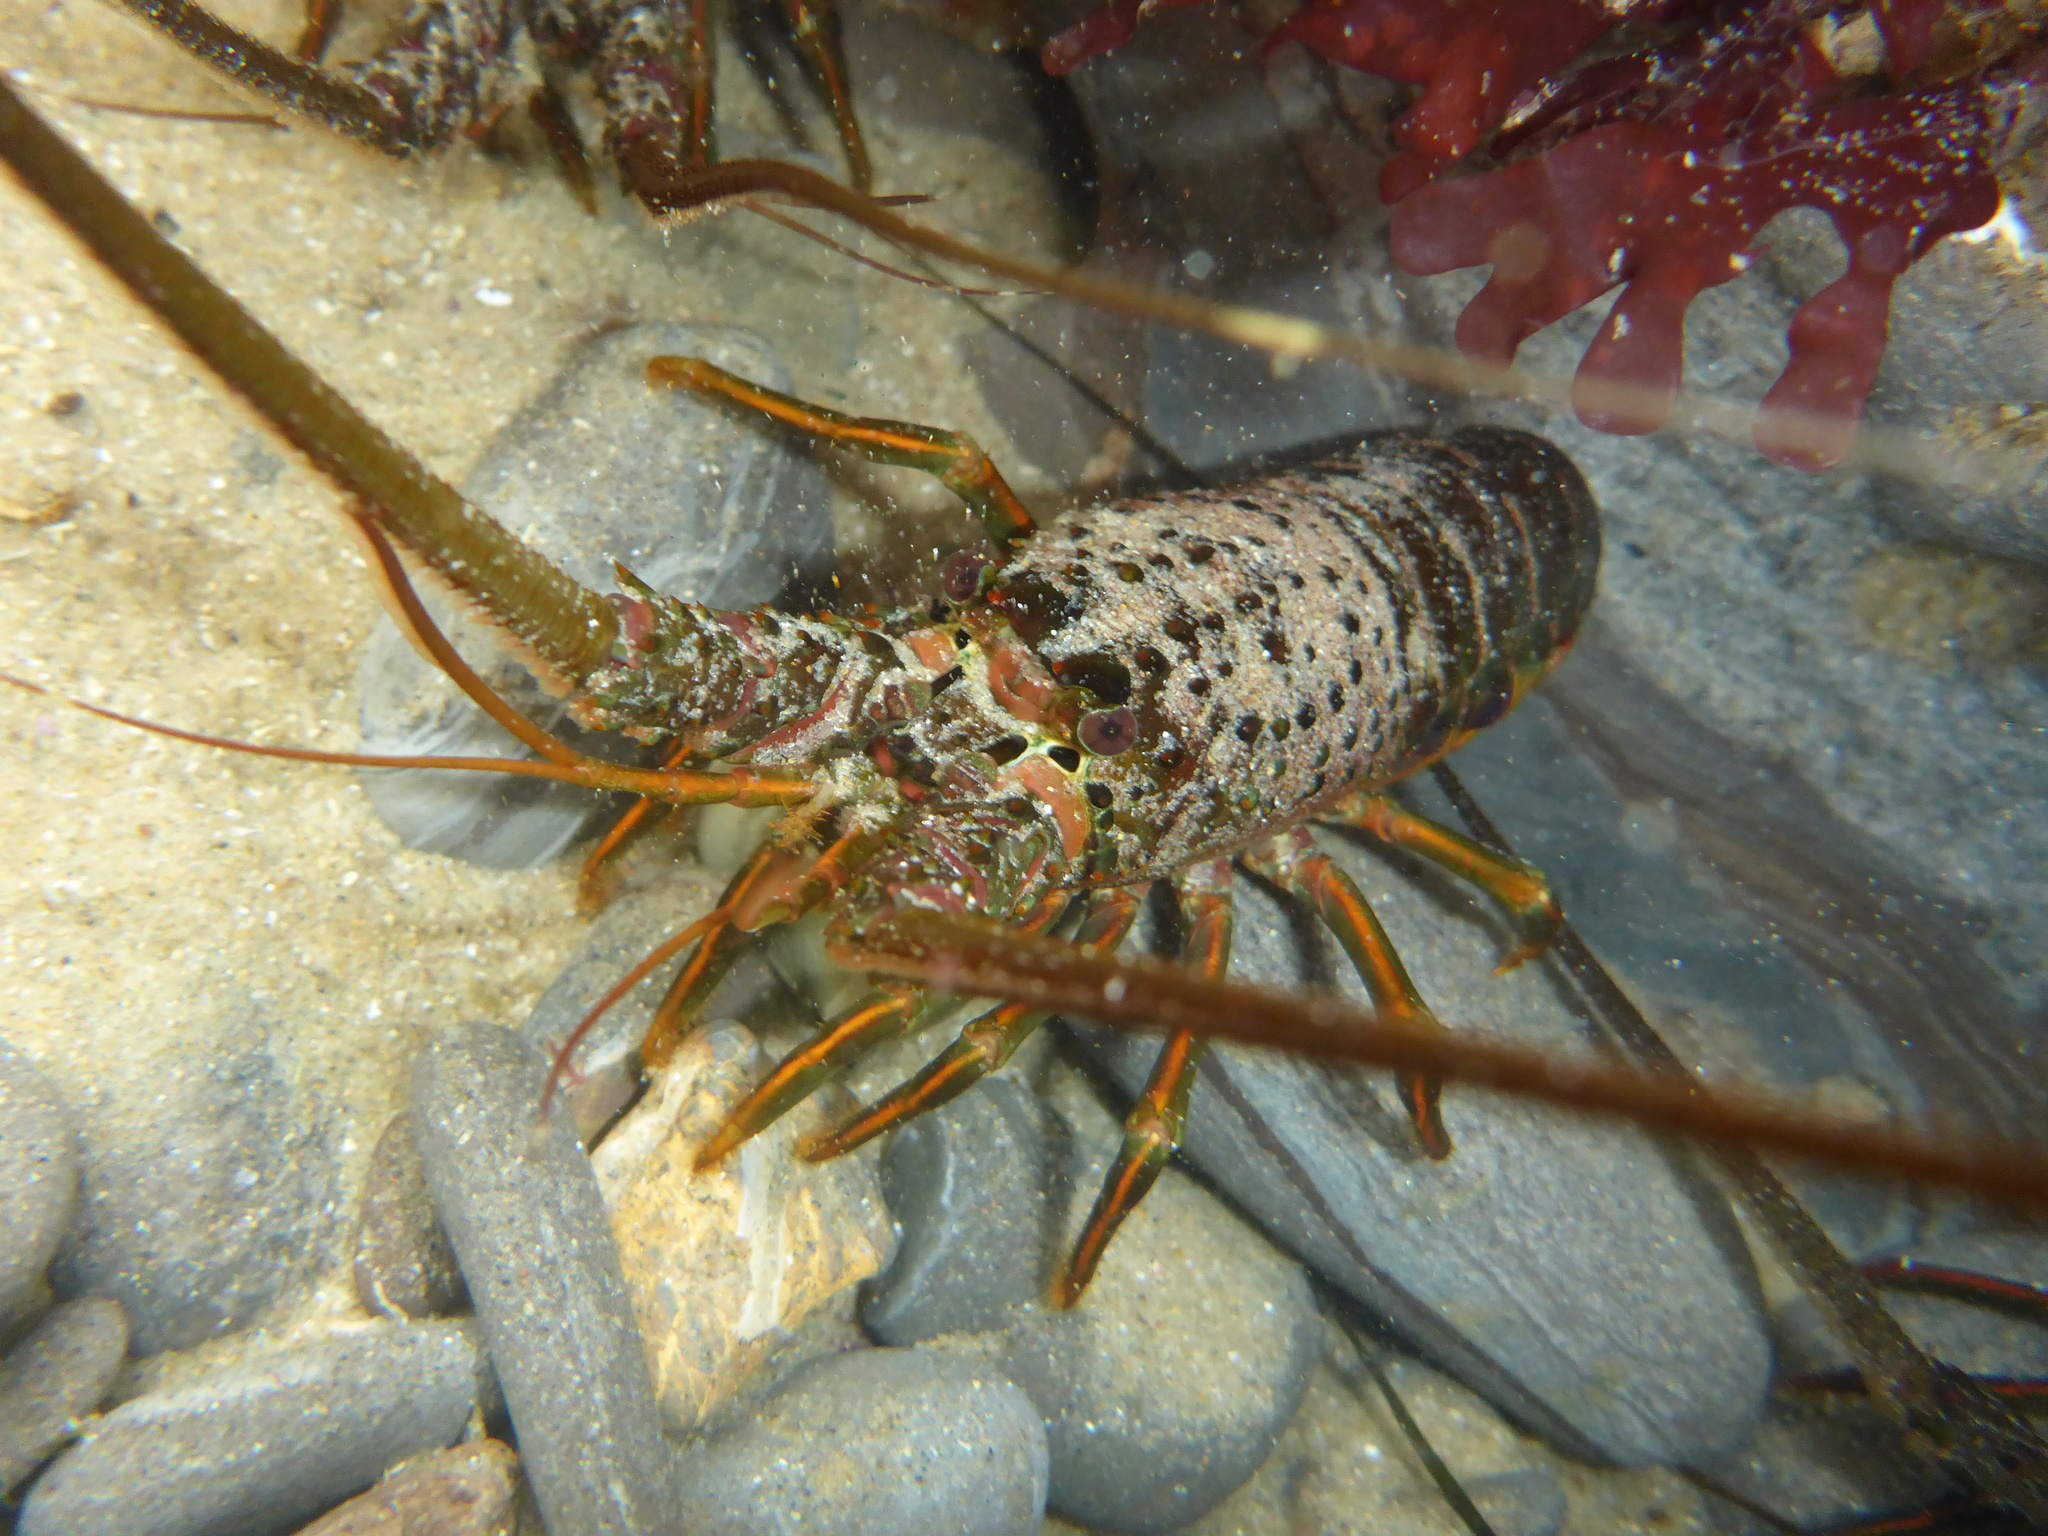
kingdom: Animalia
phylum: Arthropoda
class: Malacostraca
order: Decapoda
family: Palinuridae
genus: Panulirus
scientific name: Panulirus interruptus
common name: California spiny lobster
